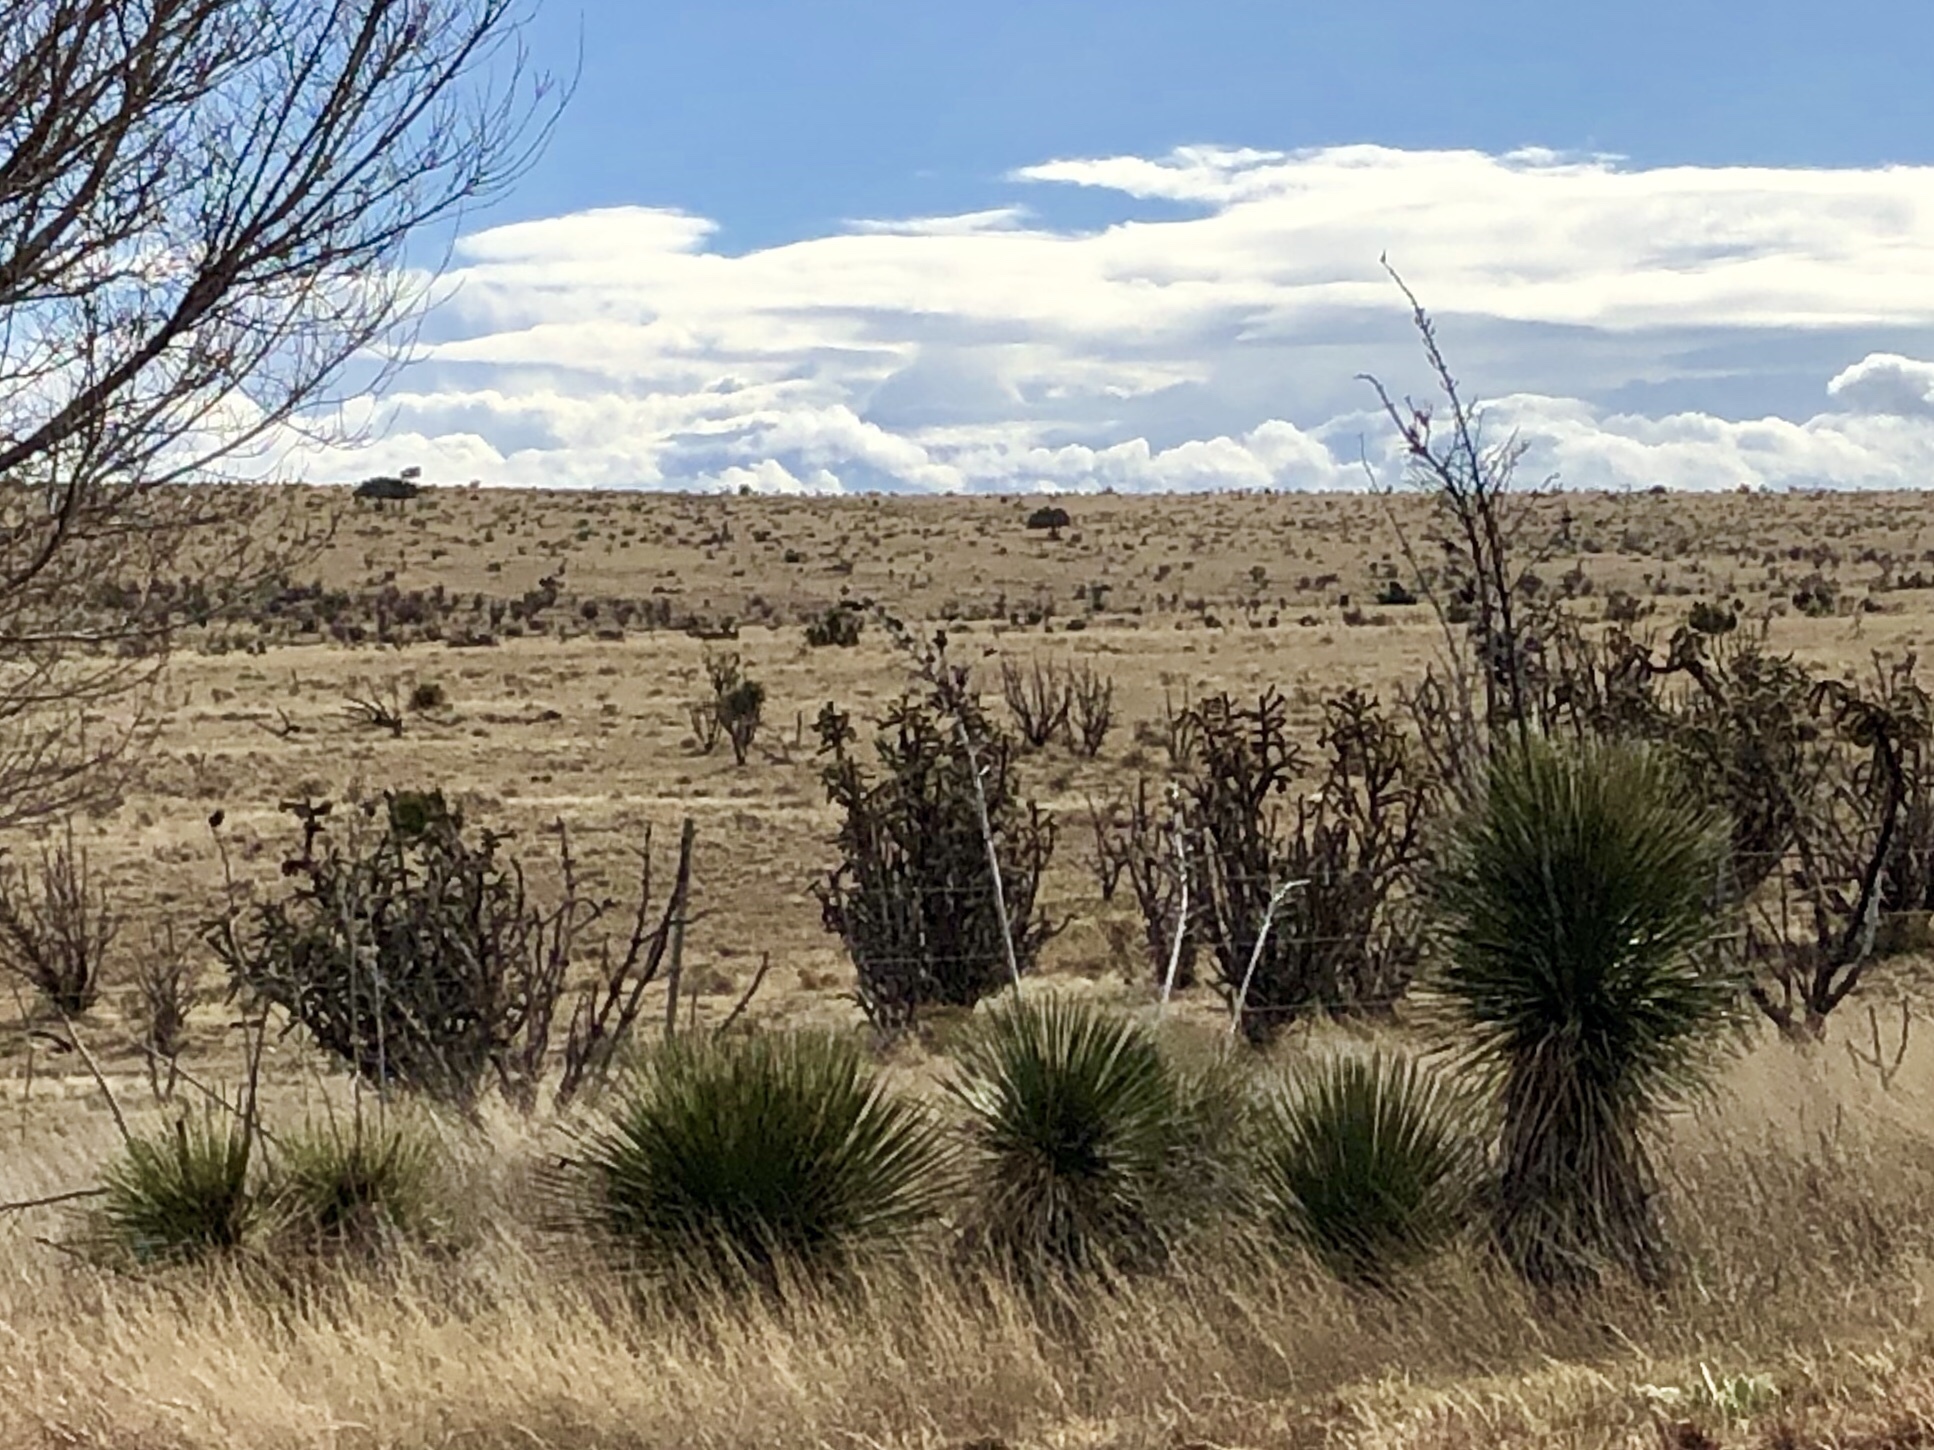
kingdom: Plantae
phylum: Tracheophyta
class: Liliopsida
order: Asparagales
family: Asparagaceae
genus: Yucca
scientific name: Yucca elata
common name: Palmella
